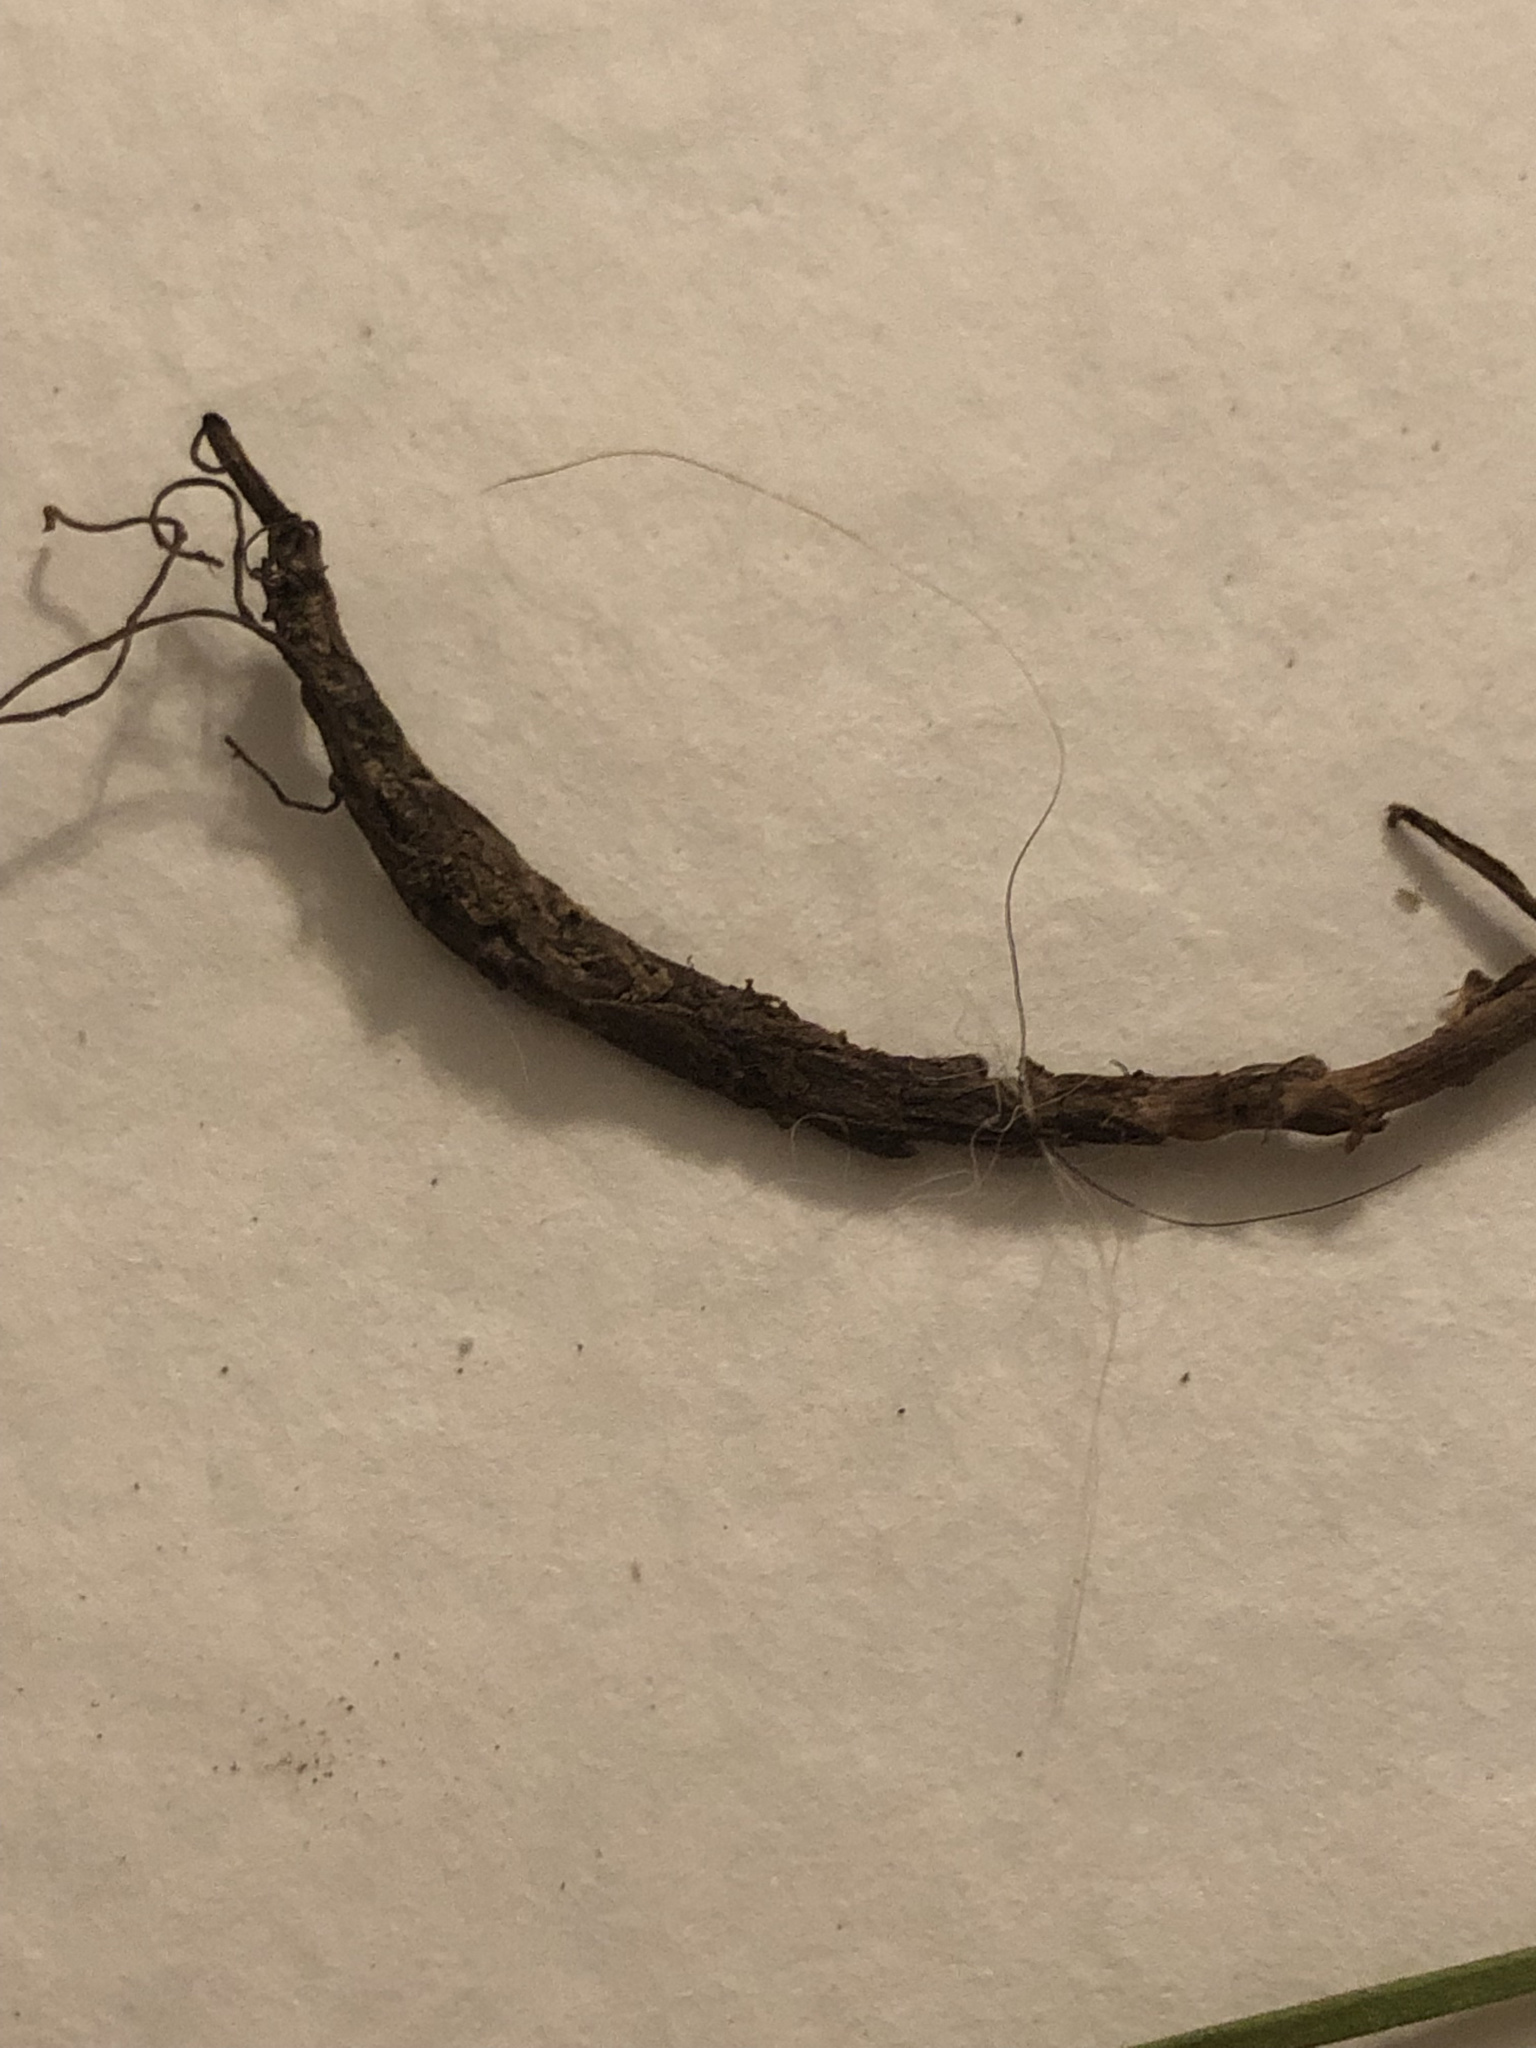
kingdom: Plantae
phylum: Tracheophyta
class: Magnoliopsida
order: Ranunculales
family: Ranunculaceae
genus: Delphinium
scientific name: Delphinium carolinianum
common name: Carolina larkspur
